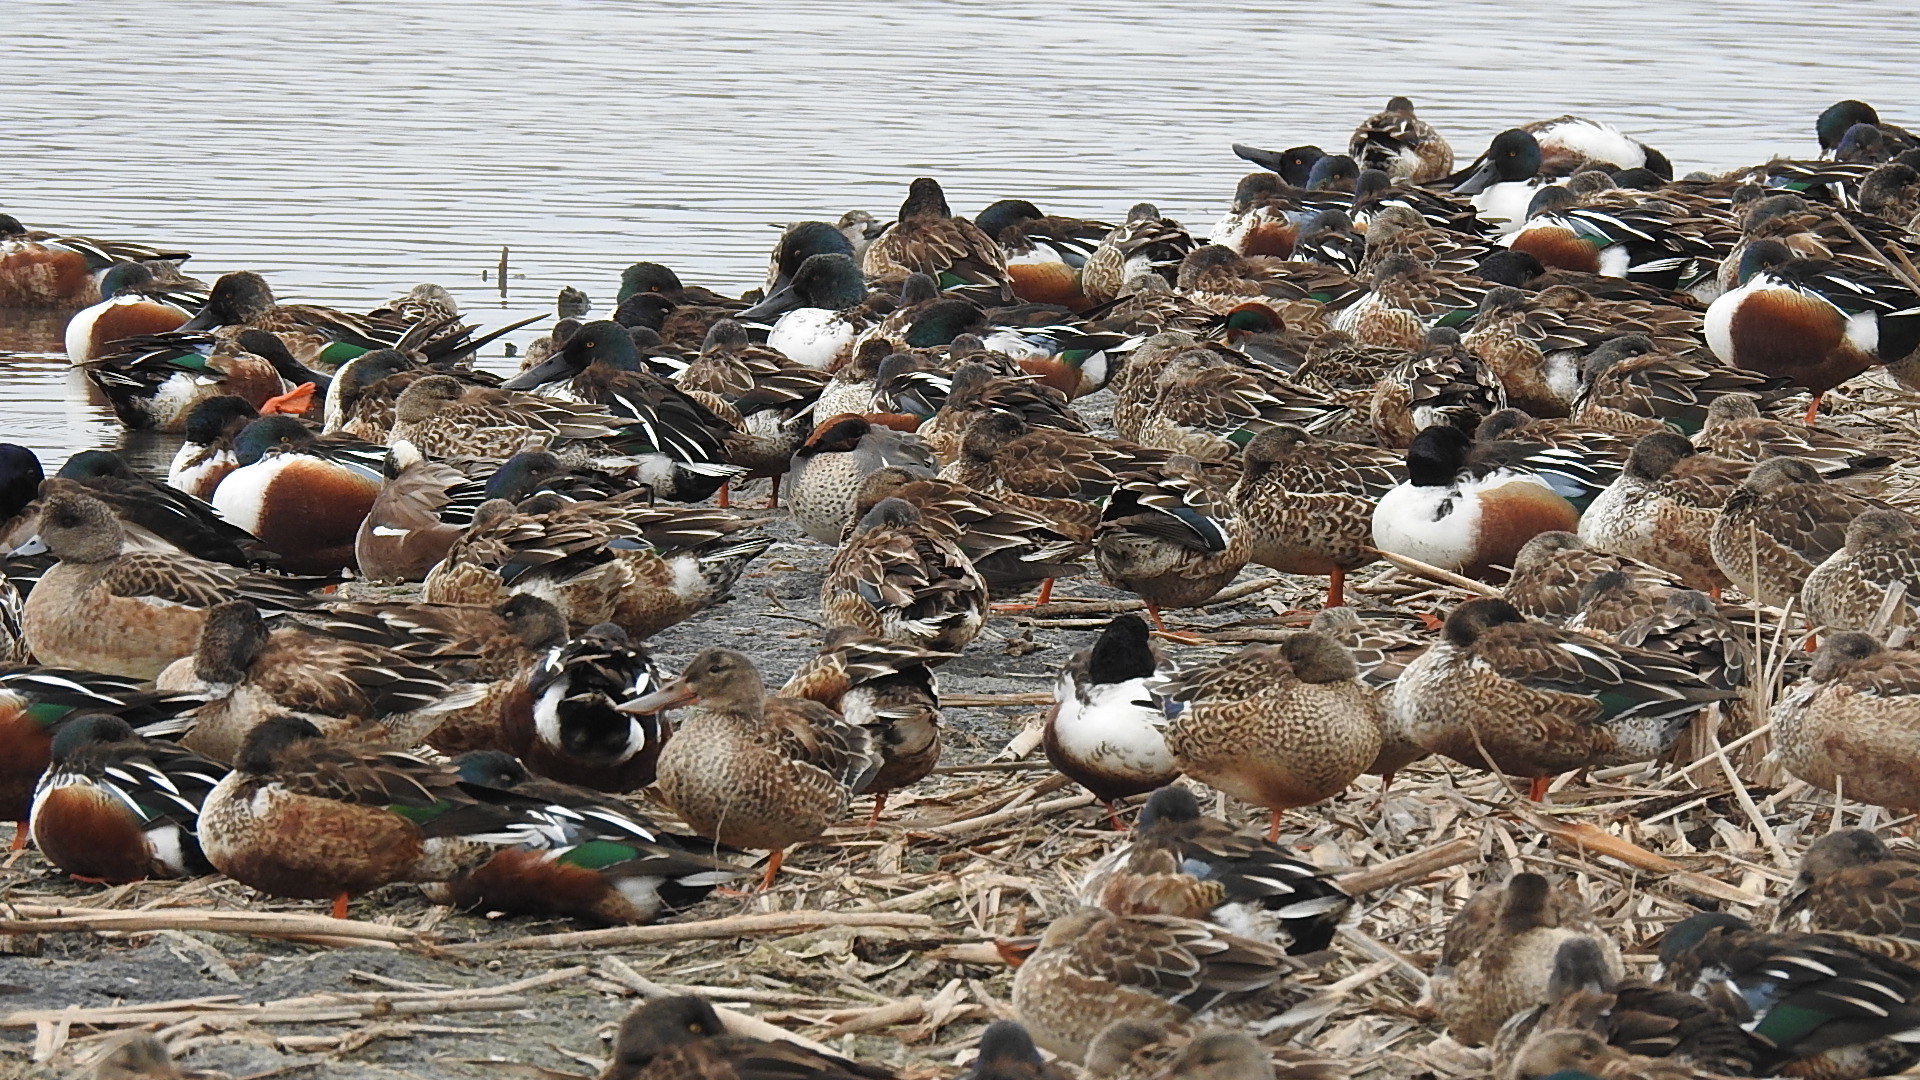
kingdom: Animalia
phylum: Chordata
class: Aves
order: Anseriformes
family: Anatidae
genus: Spatula
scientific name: Spatula clypeata
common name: Northern shoveler
